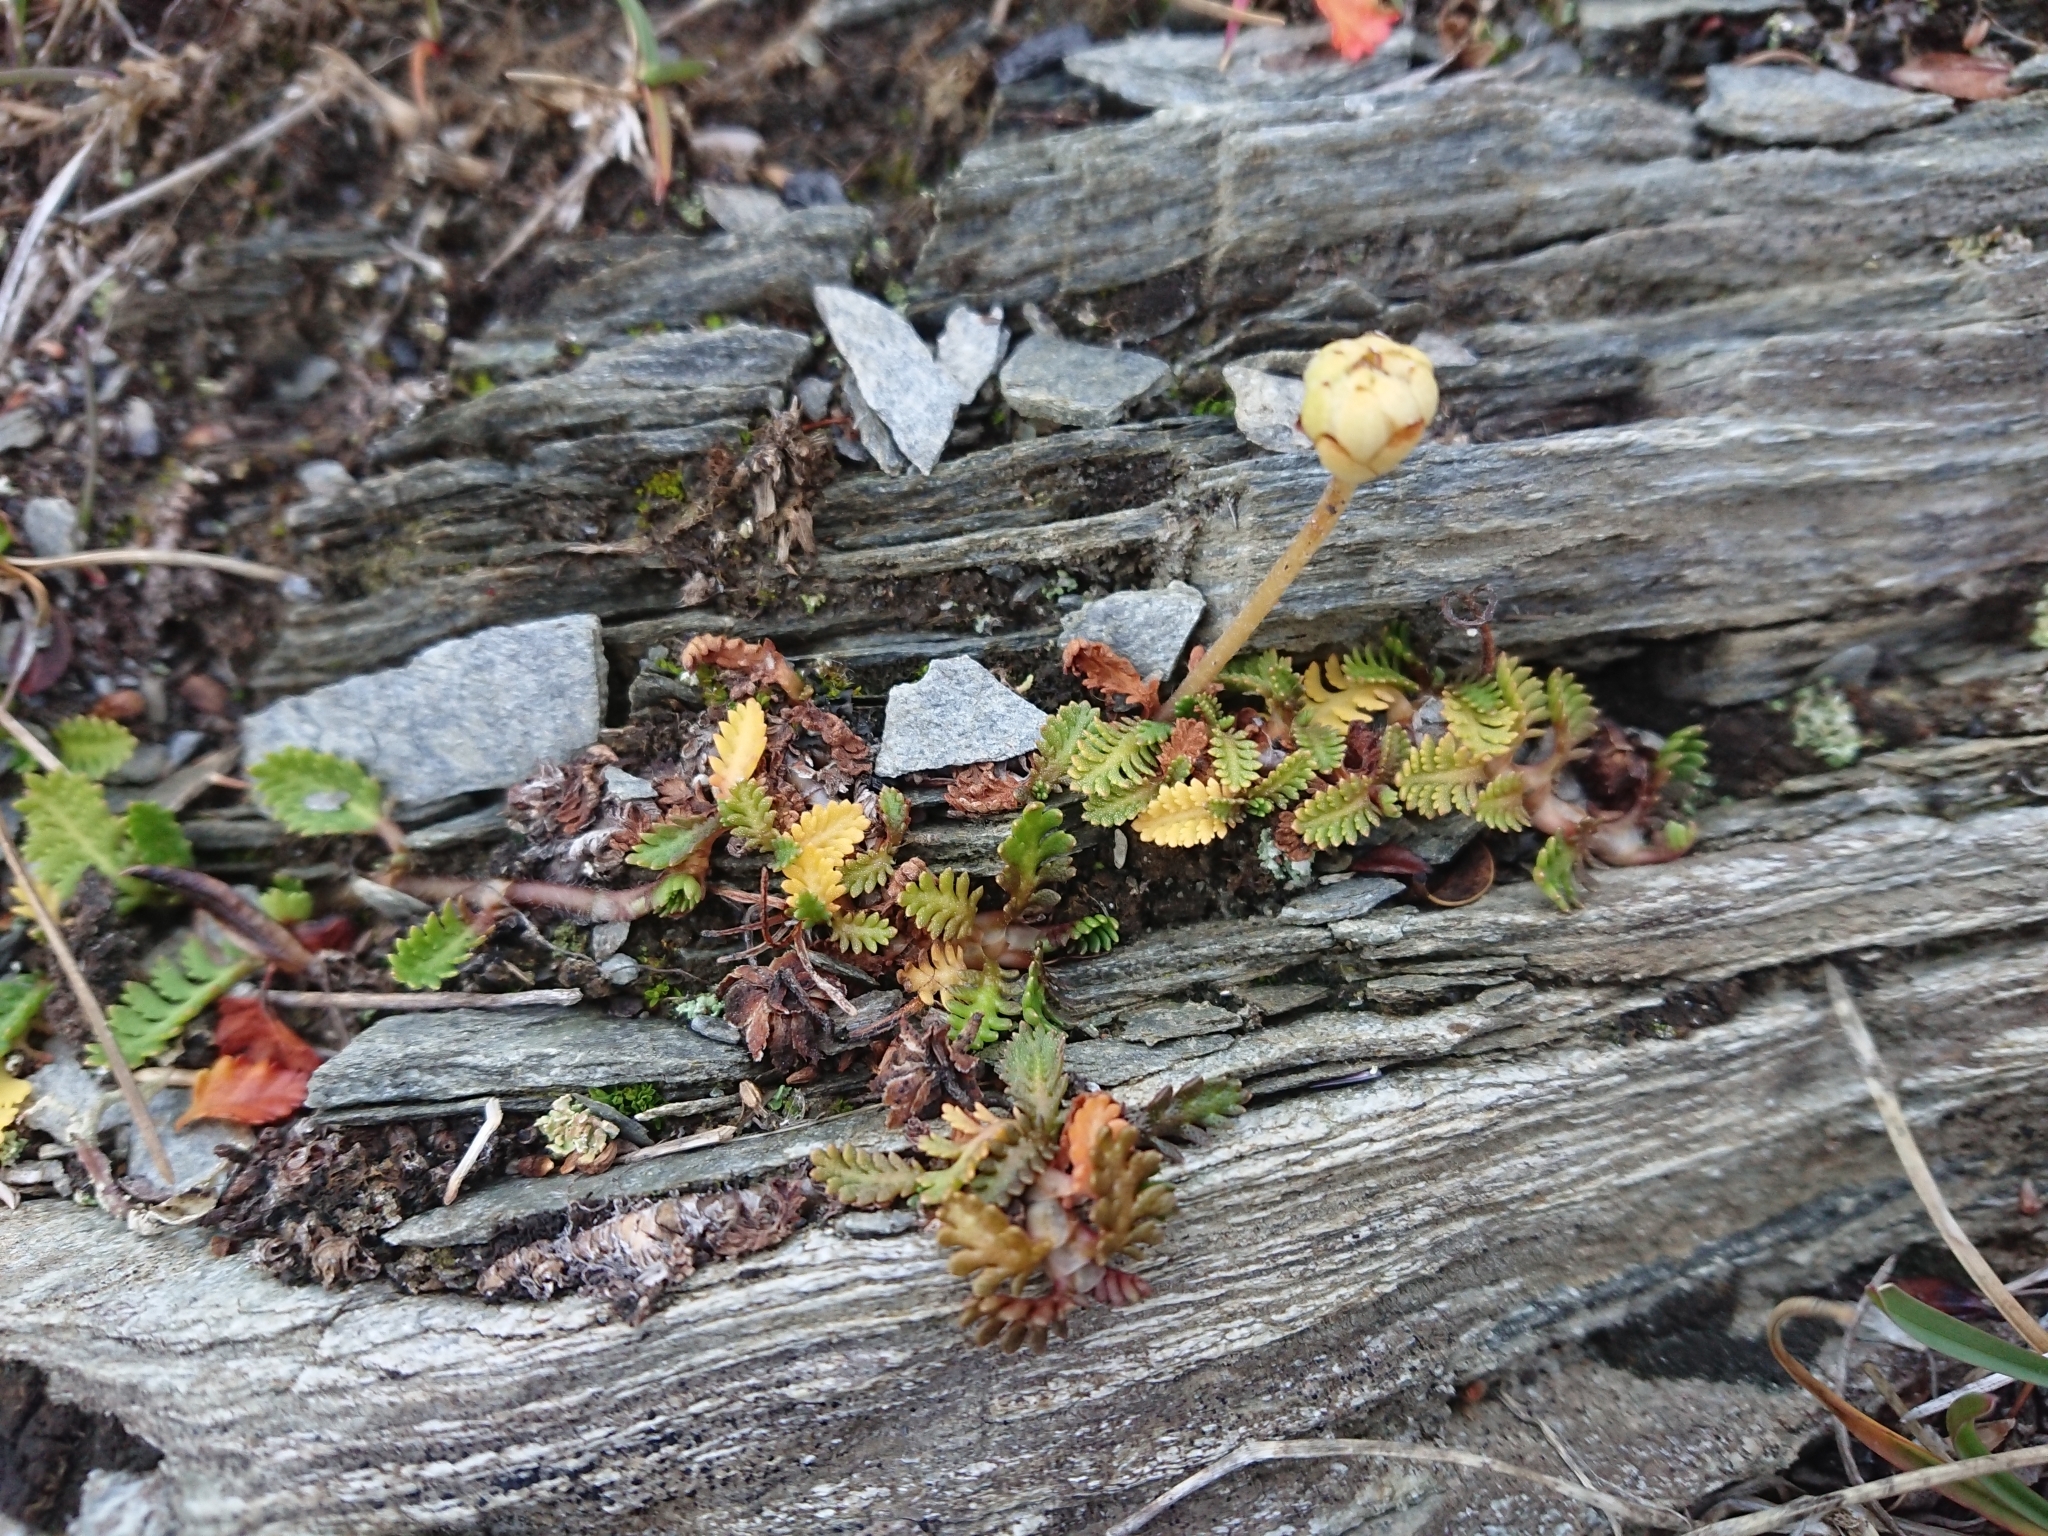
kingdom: Plantae
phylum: Tracheophyta
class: Magnoliopsida
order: Asterales
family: Asteraceae
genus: Leptinella
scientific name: Leptinella scariosa
